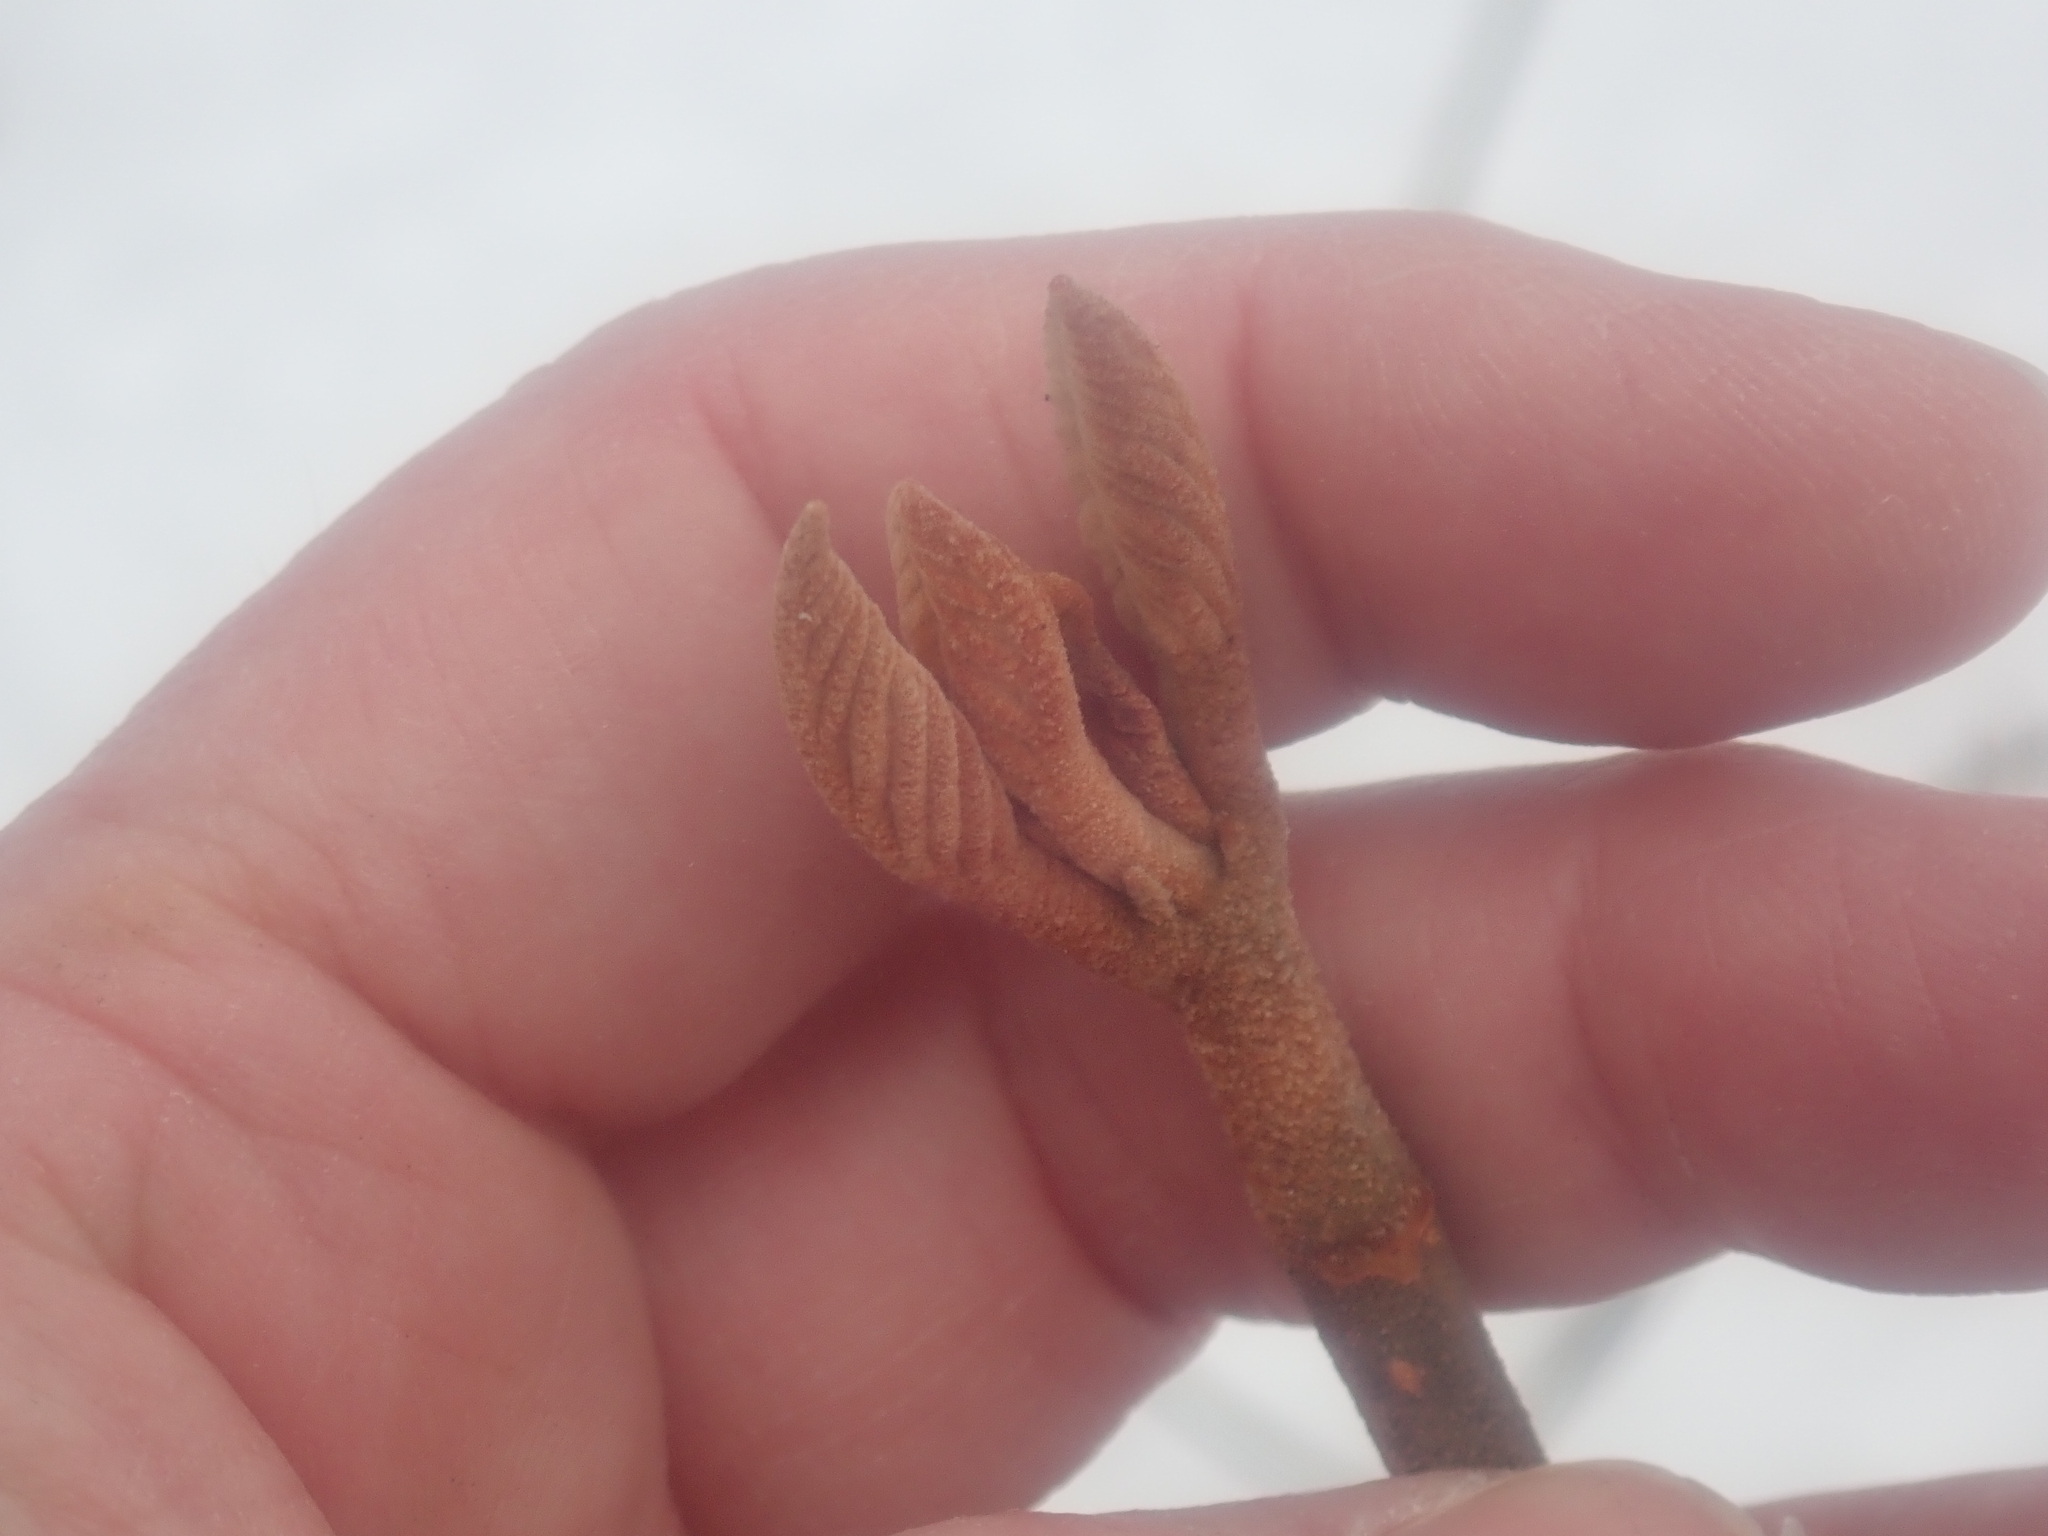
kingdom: Plantae
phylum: Tracheophyta
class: Magnoliopsida
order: Dipsacales
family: Viburnaceae
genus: Viburnum
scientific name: Viburnum lantanoides
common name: Hobblebush
